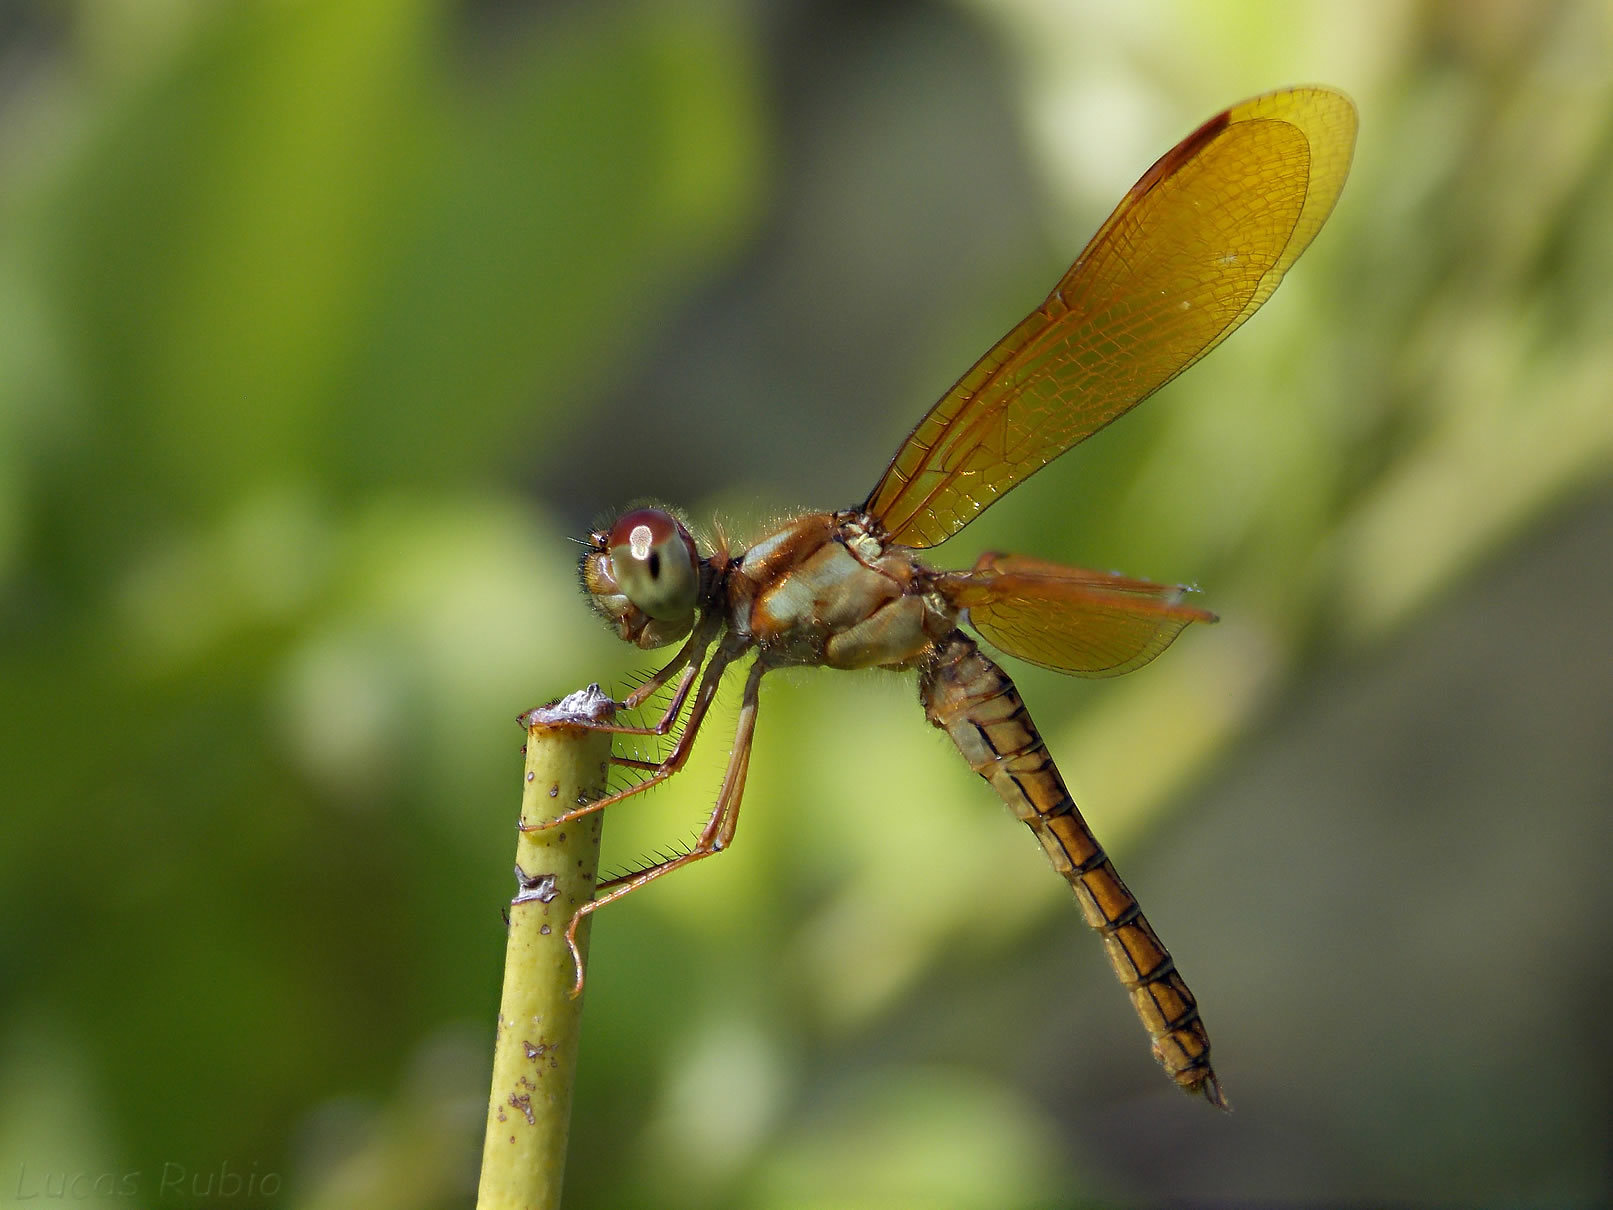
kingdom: Animalia
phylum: Arthropoda
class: Insecta
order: Odonata
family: Libellulidae
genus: Perithemis
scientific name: Perithemis tenera
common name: Eastern amberwing
